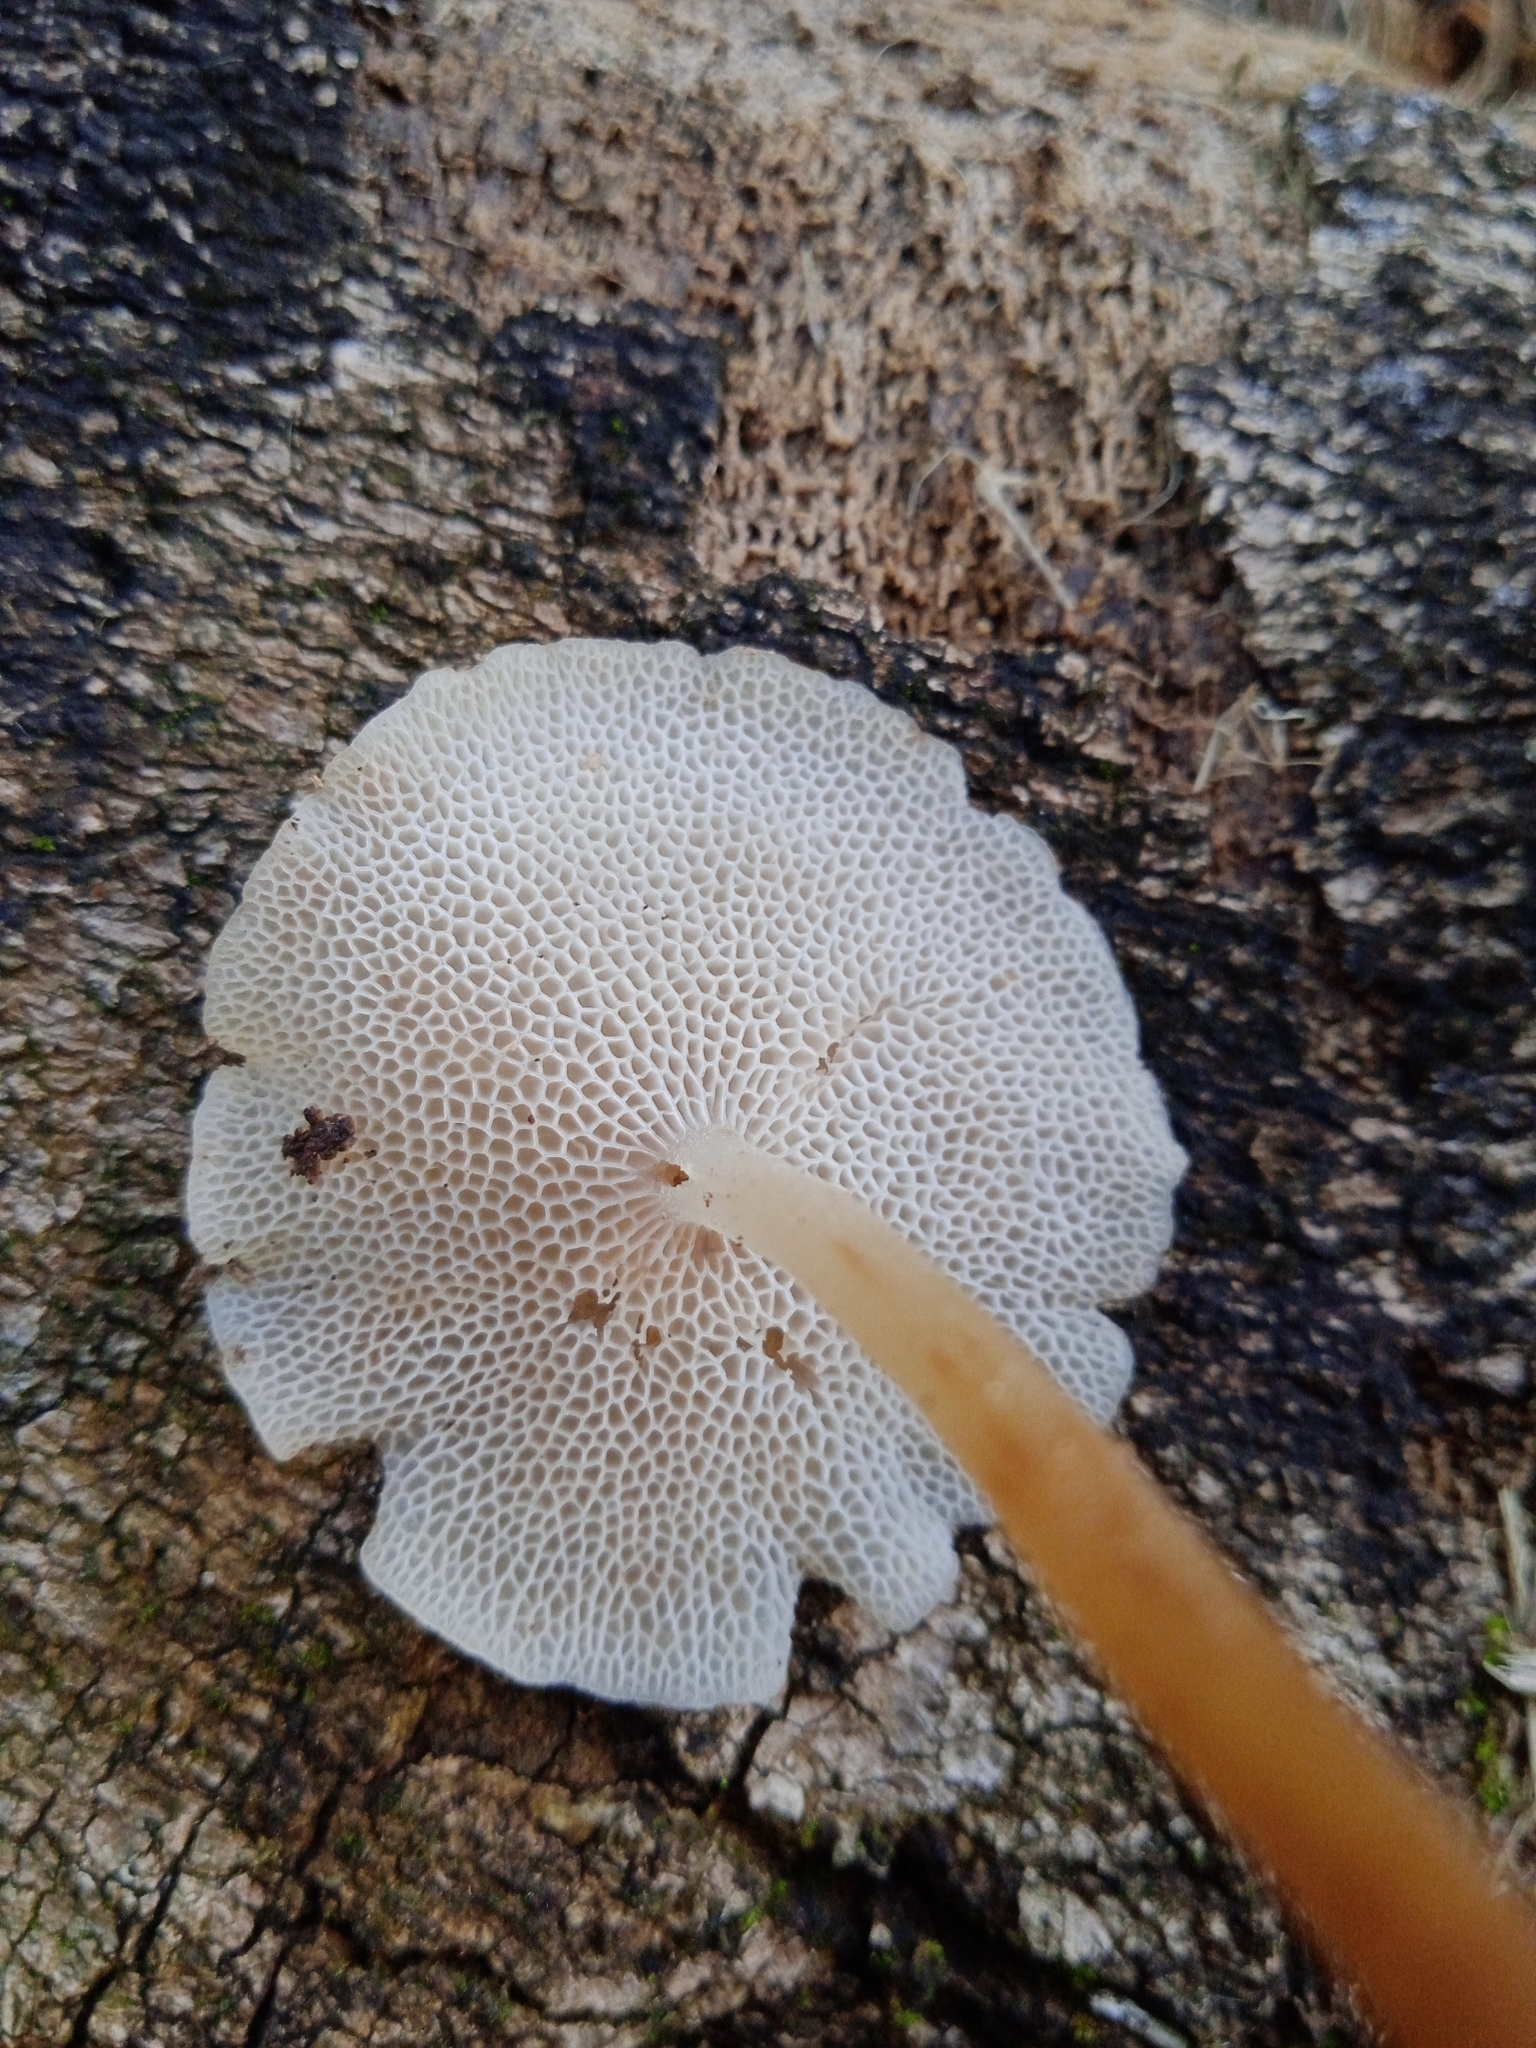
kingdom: Fungi
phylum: Basidiomycota
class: Agaricomycetes
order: Agaricales
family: Mycenaceae
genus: Filoboletus
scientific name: Filoboletus gracilis
